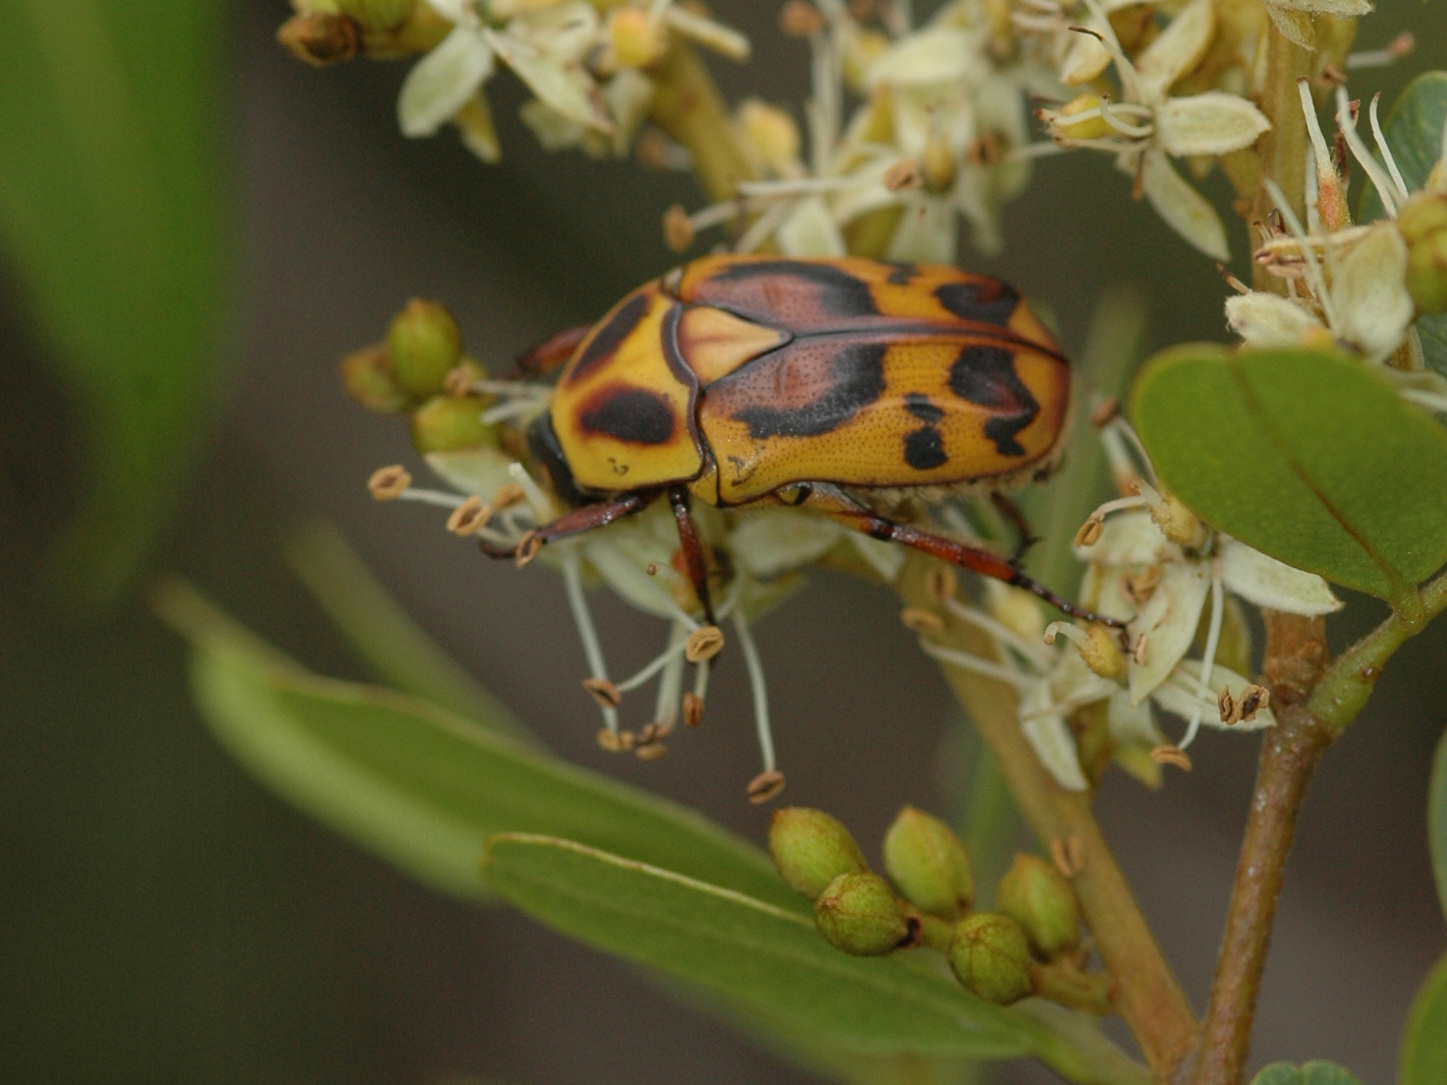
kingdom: Animalia
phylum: Arthropoda
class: Insecta
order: Coleoptera
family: Scarabaeidae
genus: Pachnoda
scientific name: Pachnoda discolor
